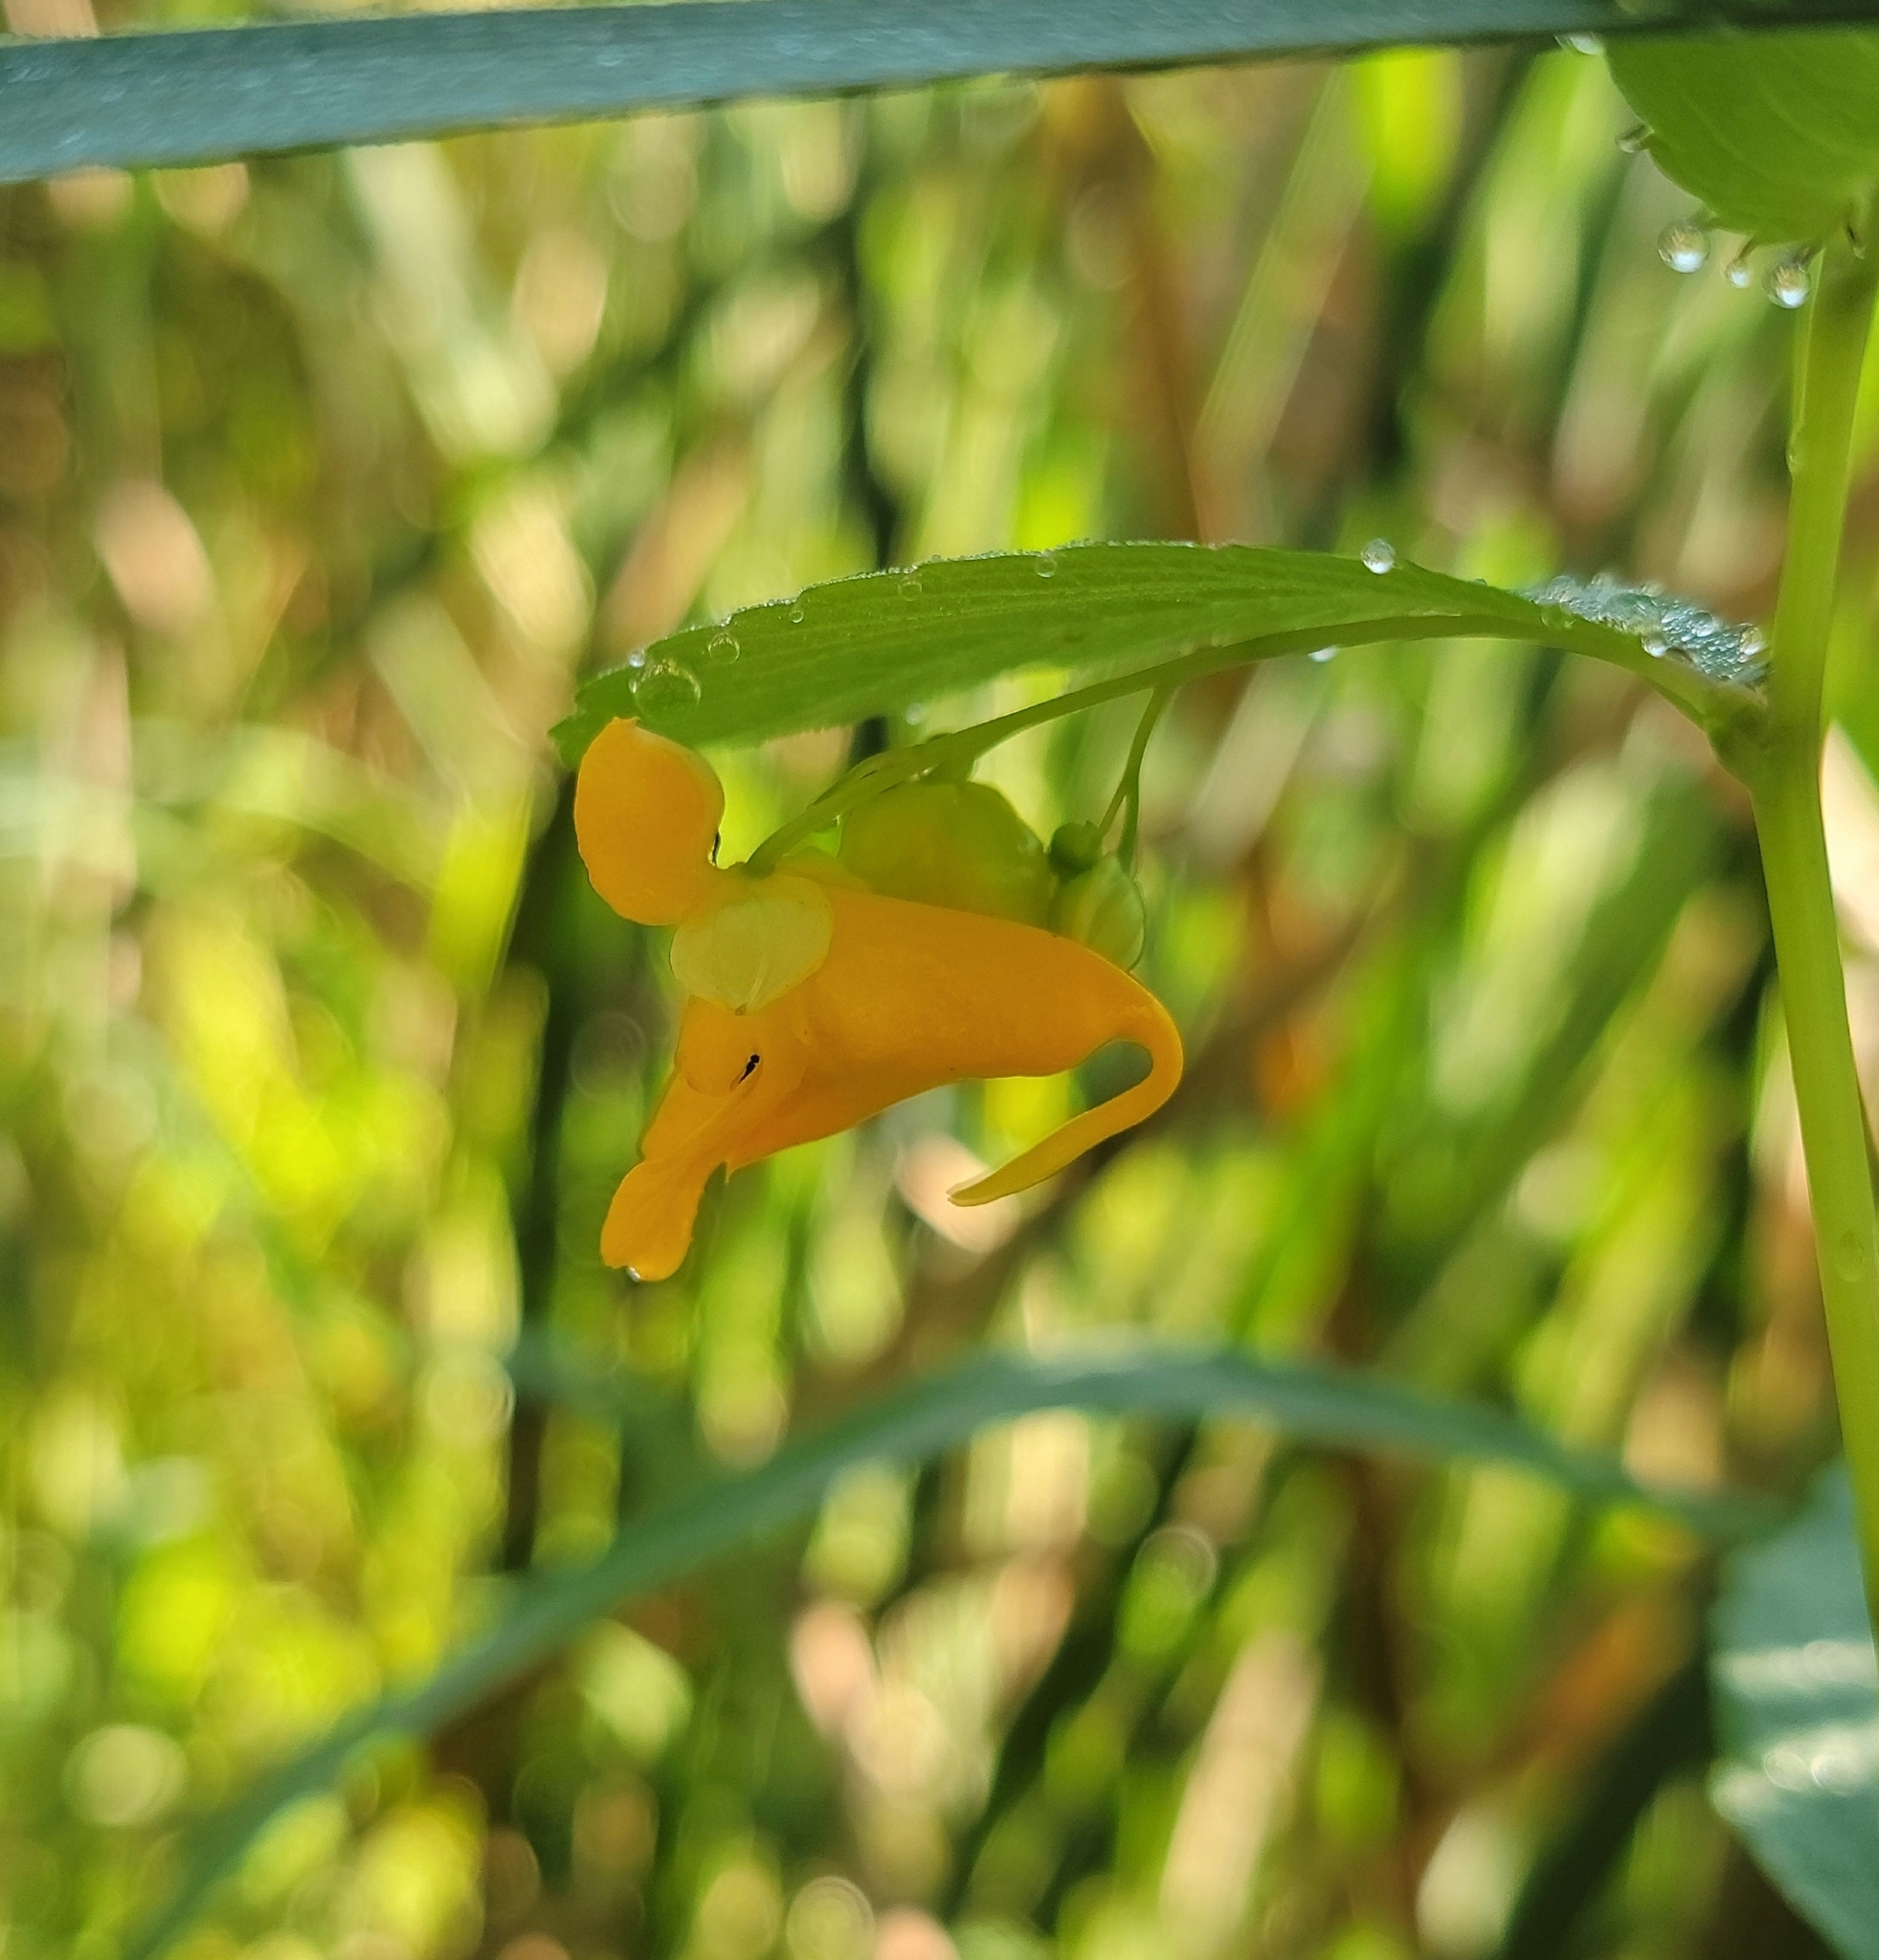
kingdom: Plantae
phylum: Tracheophyta
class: Magnoliopsida
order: Ericales
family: Balsaminaceae
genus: Impatiens
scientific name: Impatiens capensis
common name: Orange balsam
